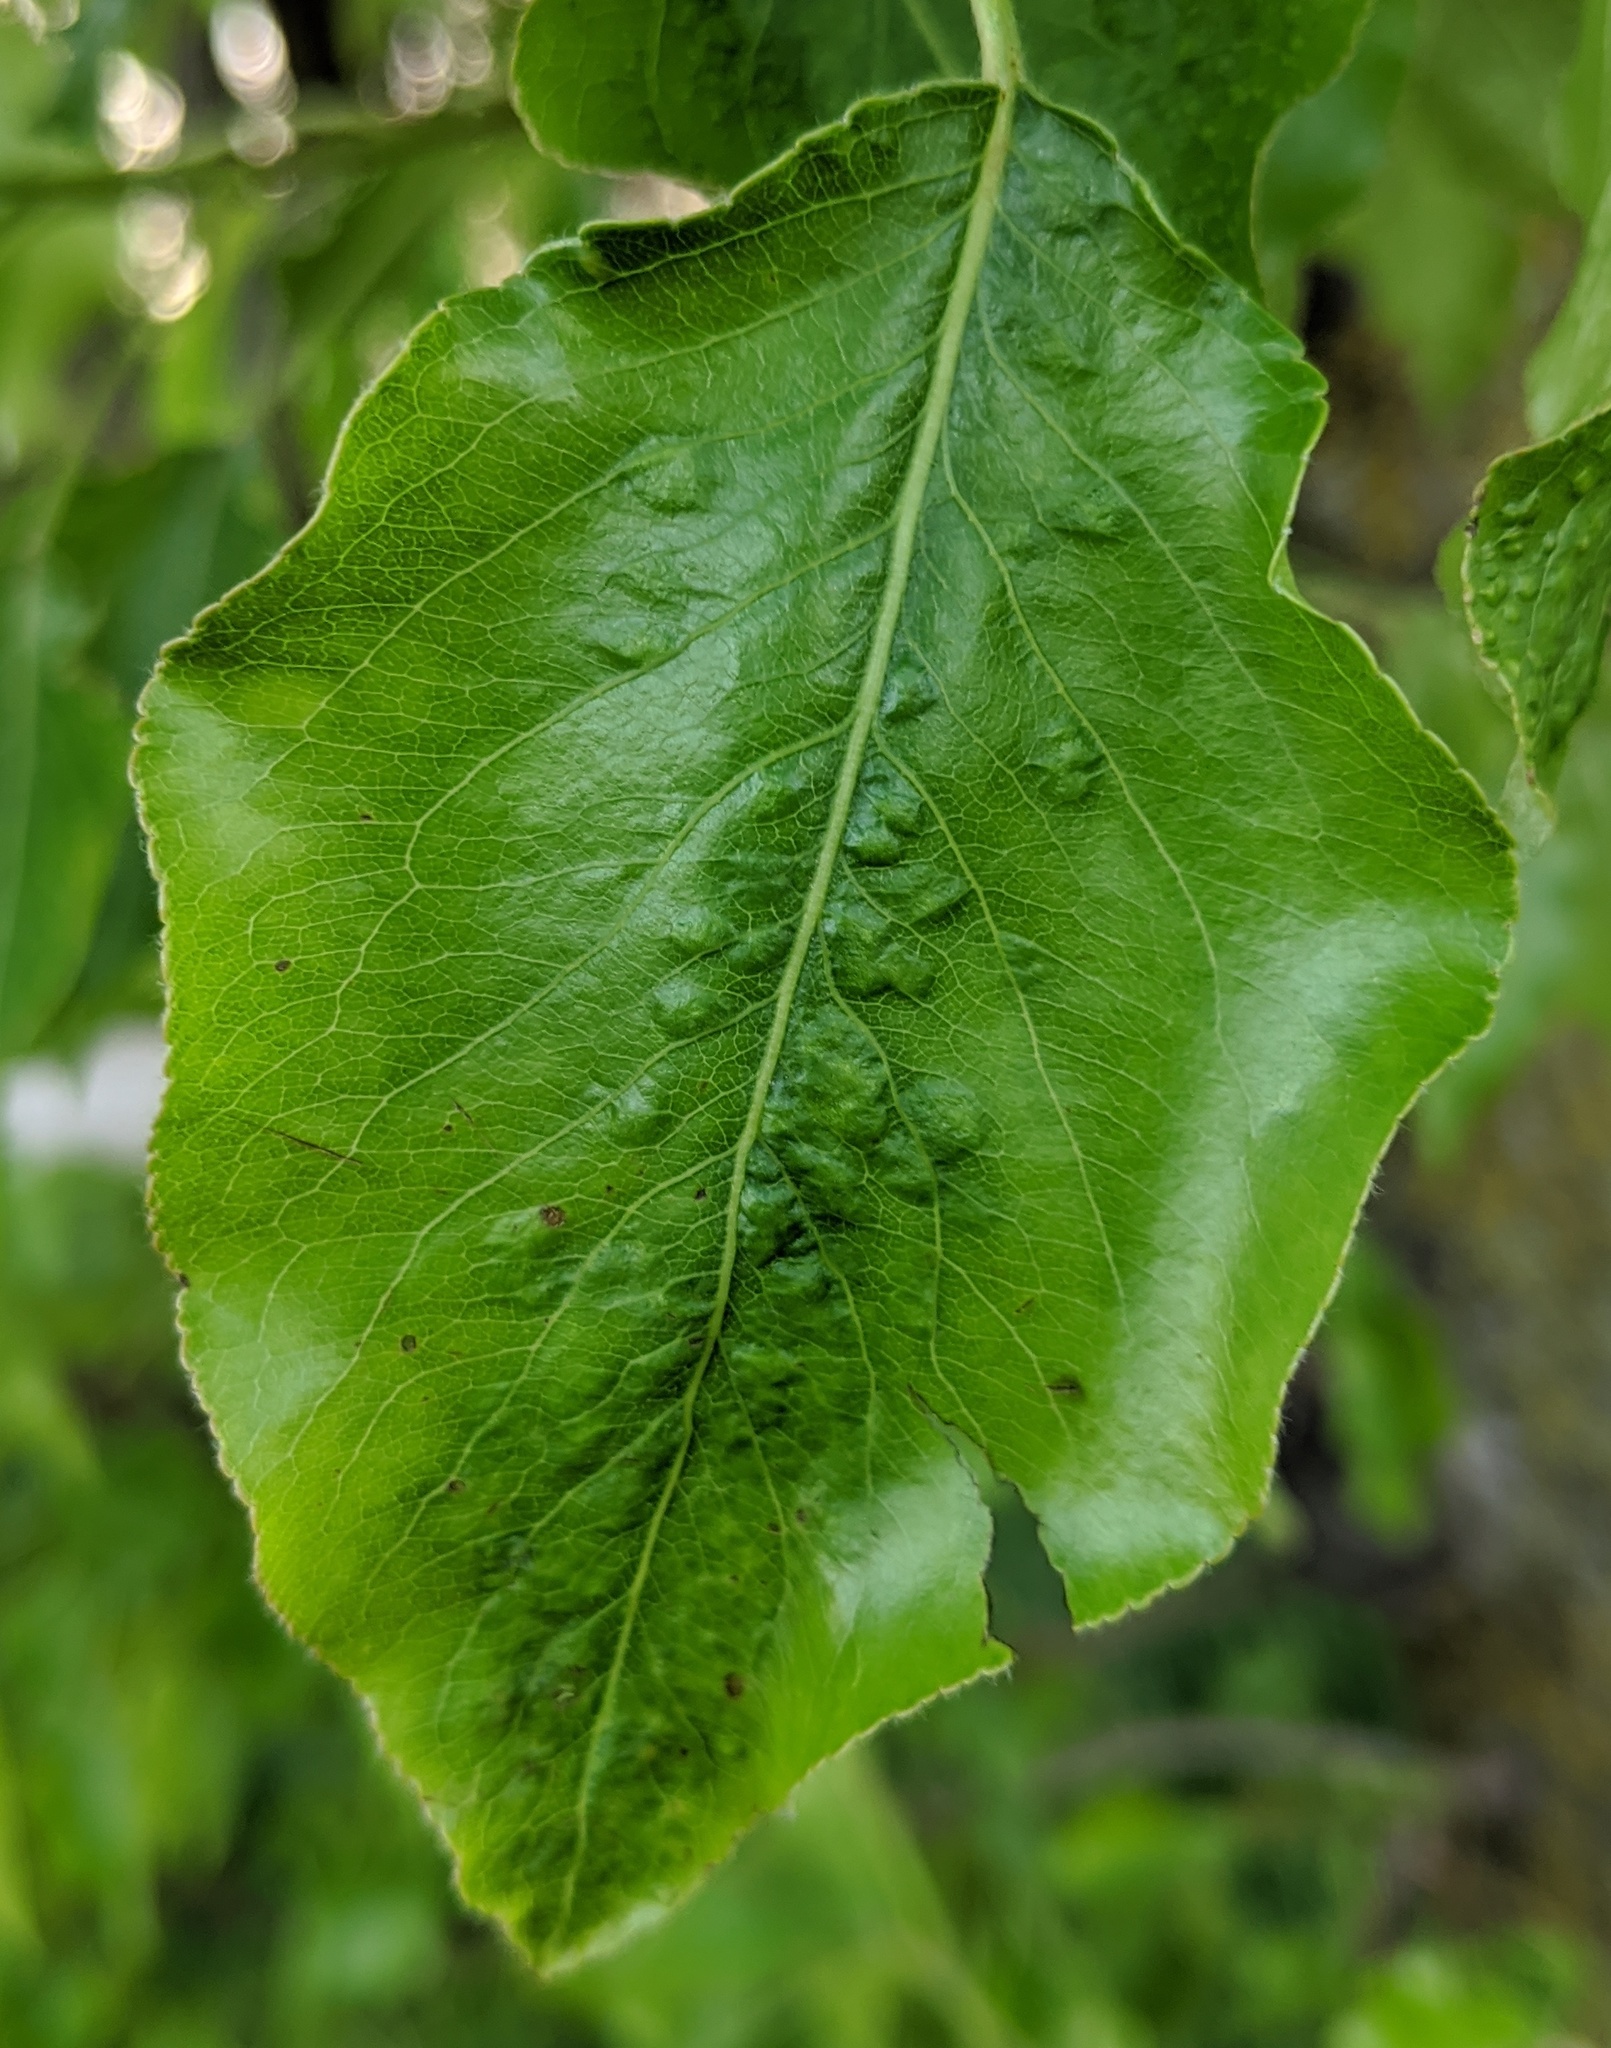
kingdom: Animalia
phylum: Arthropoda
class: Arachnida
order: Trombidiformes
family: Eriophyidae
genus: Eriophyes
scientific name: Eriophyes pyri
